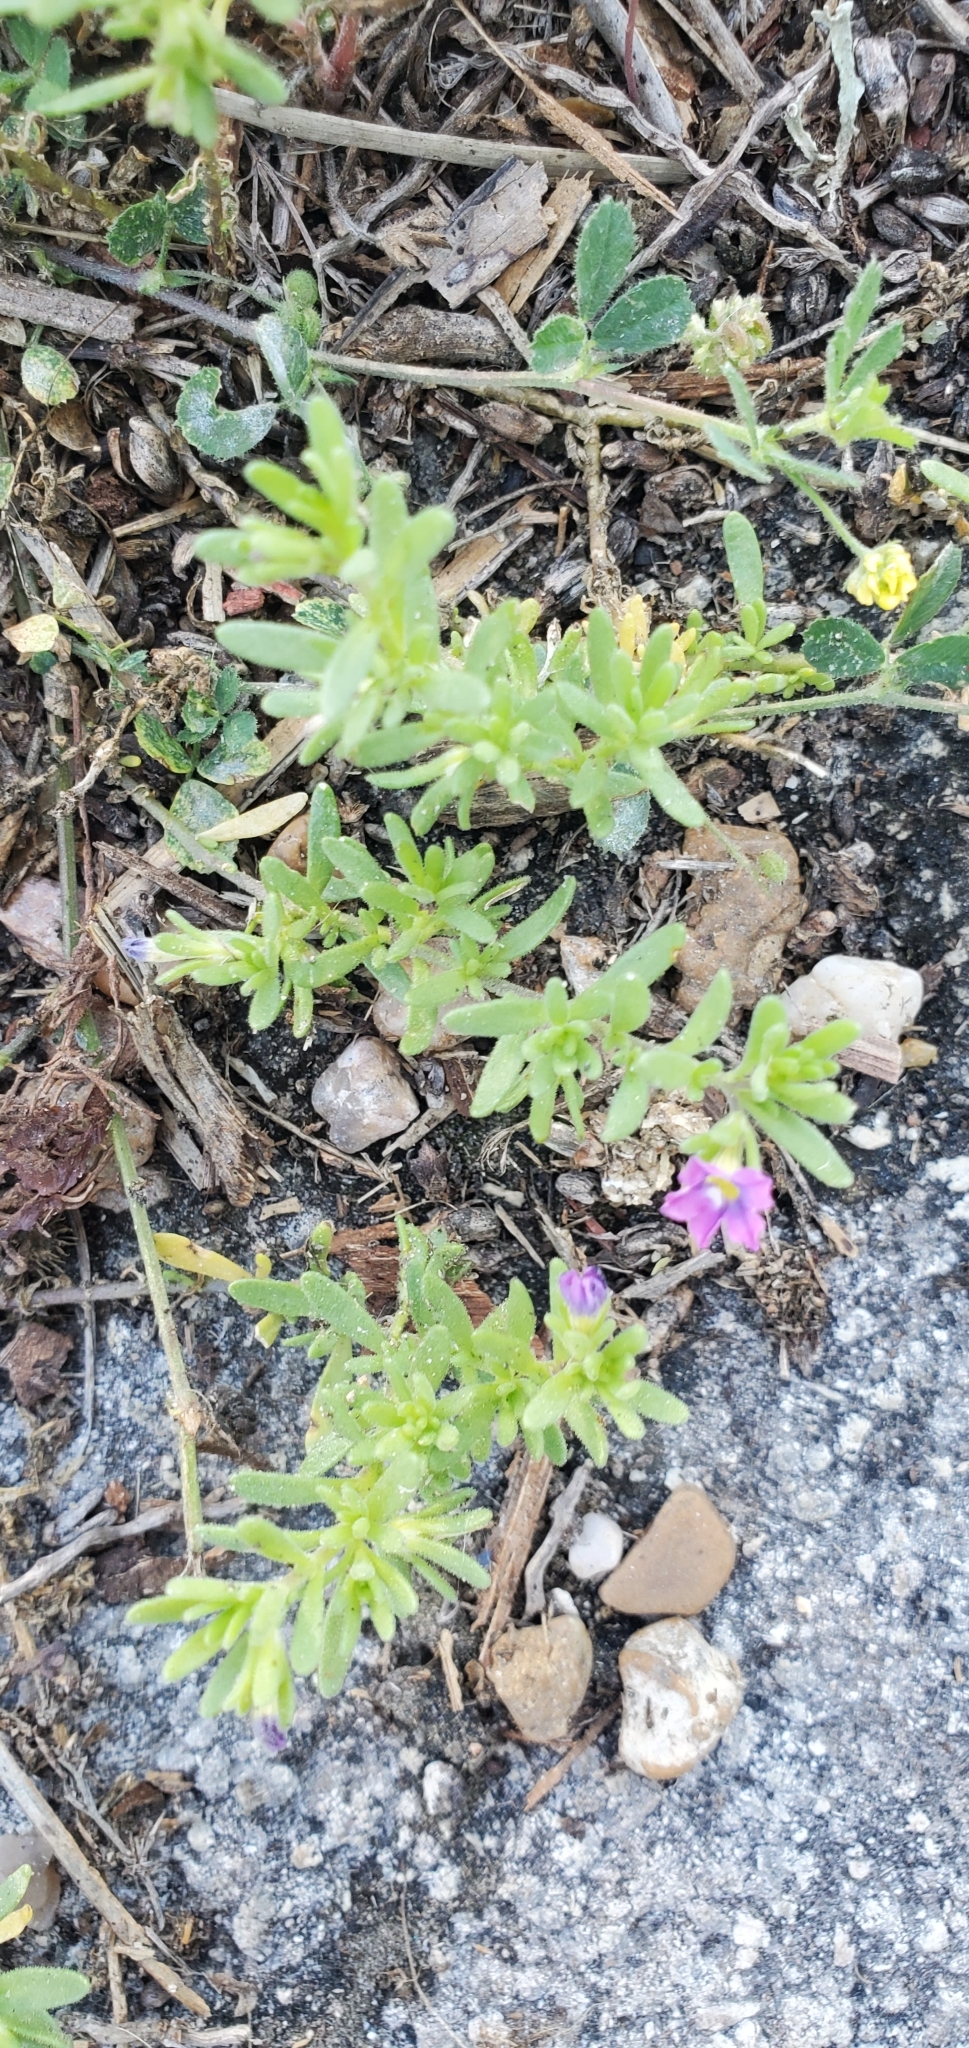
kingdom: Plantae
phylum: Tracheophyta
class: Magnoliopsida
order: Solanales
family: Solanaceae
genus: Calibrachoa
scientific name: Calibrachoa parviflora
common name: Seaside petunia
